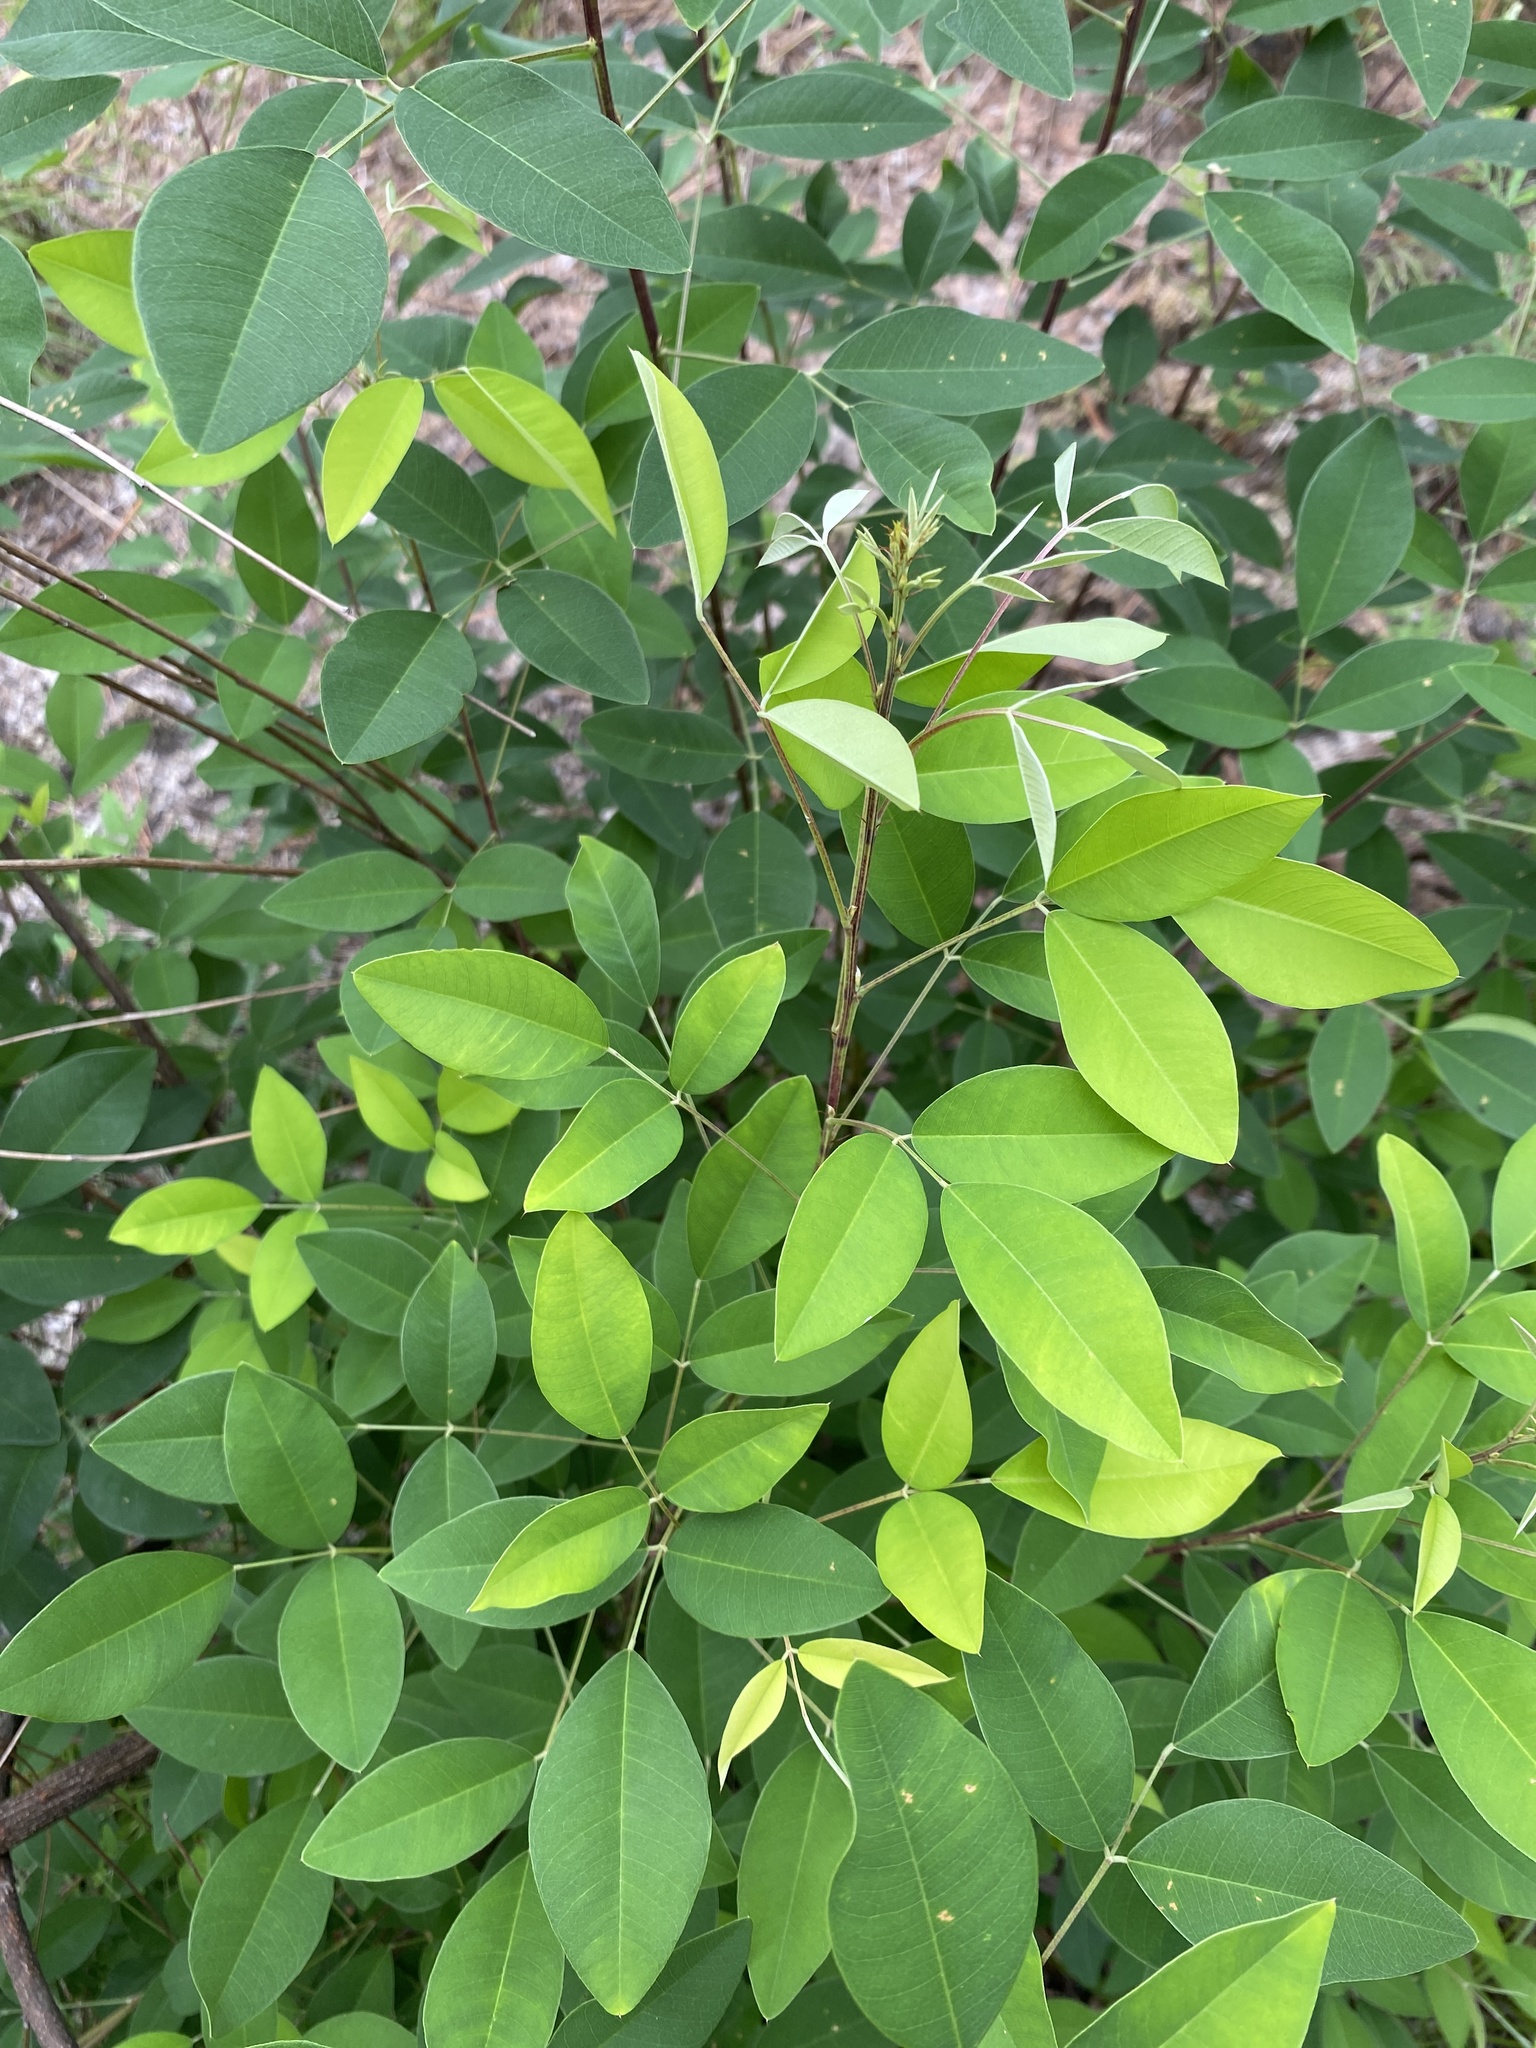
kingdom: Plantae
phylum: Tracheophyta
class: Magnoliopsida
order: Fabales
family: Fabaceae
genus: Lespedeza
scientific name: Lespedeza bicolor
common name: Shrub lespedeza
